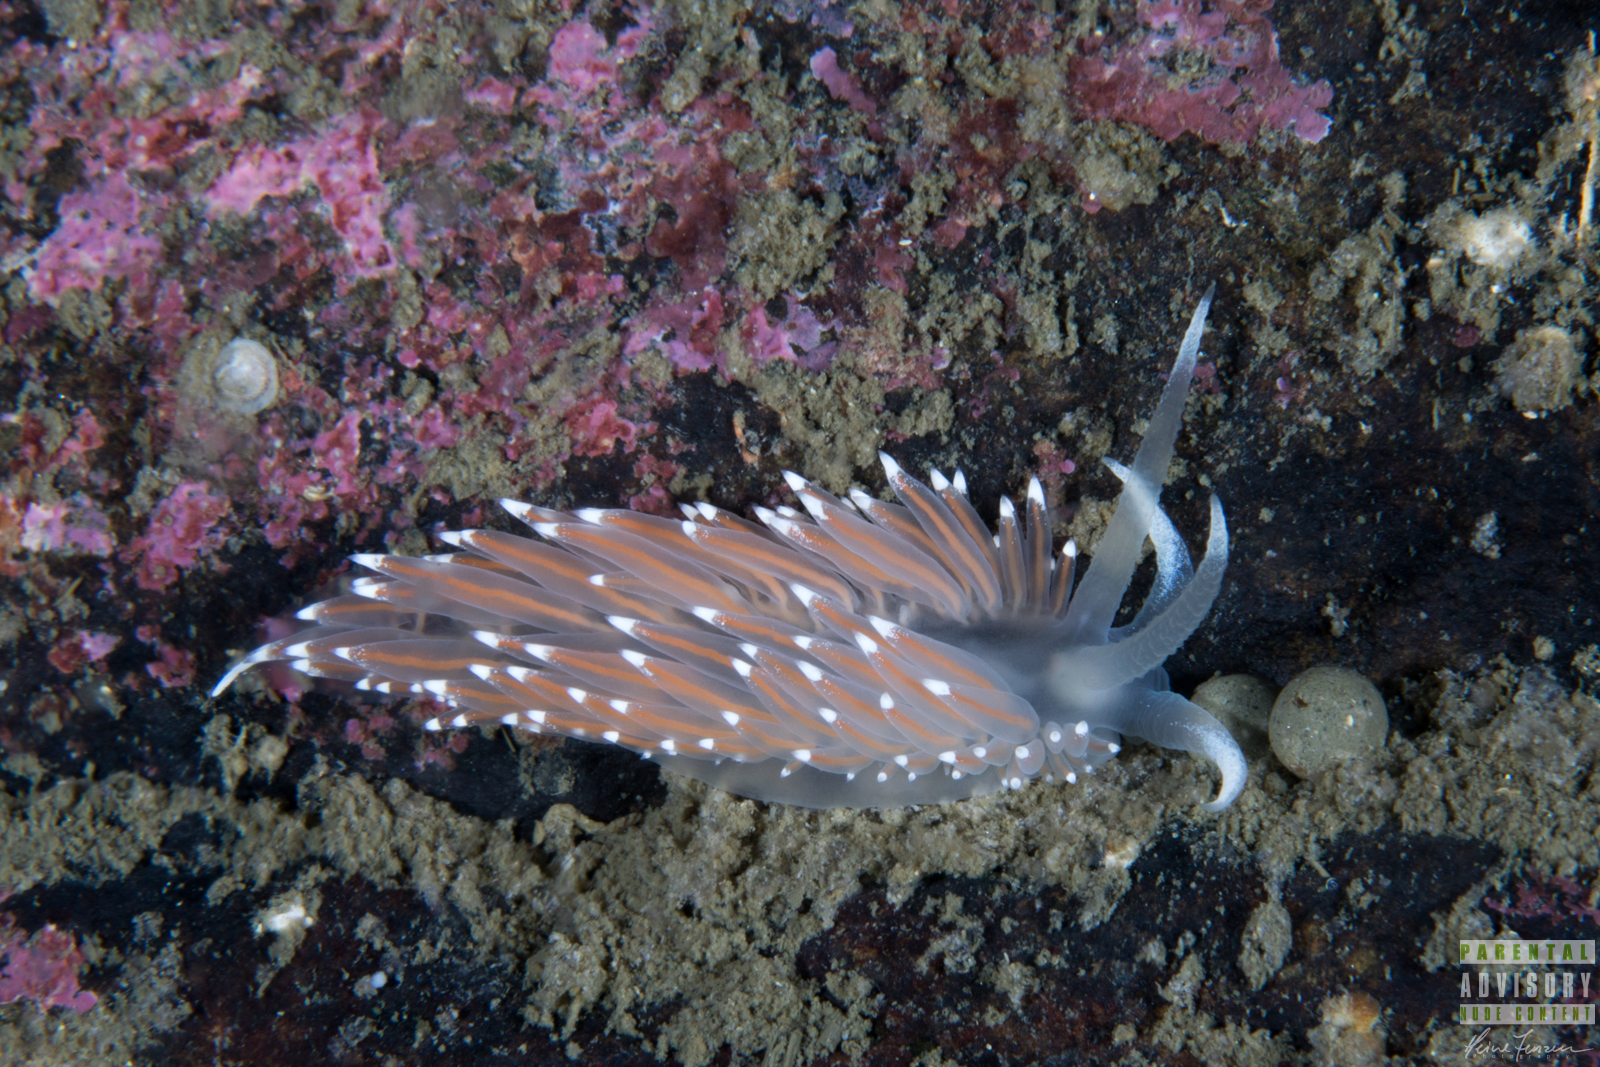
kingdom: Animalia
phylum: Mollusca
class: Gastropoda
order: Nudibranchia
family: Coryphellidae
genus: Coryphella
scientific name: Coryphella nobilis
